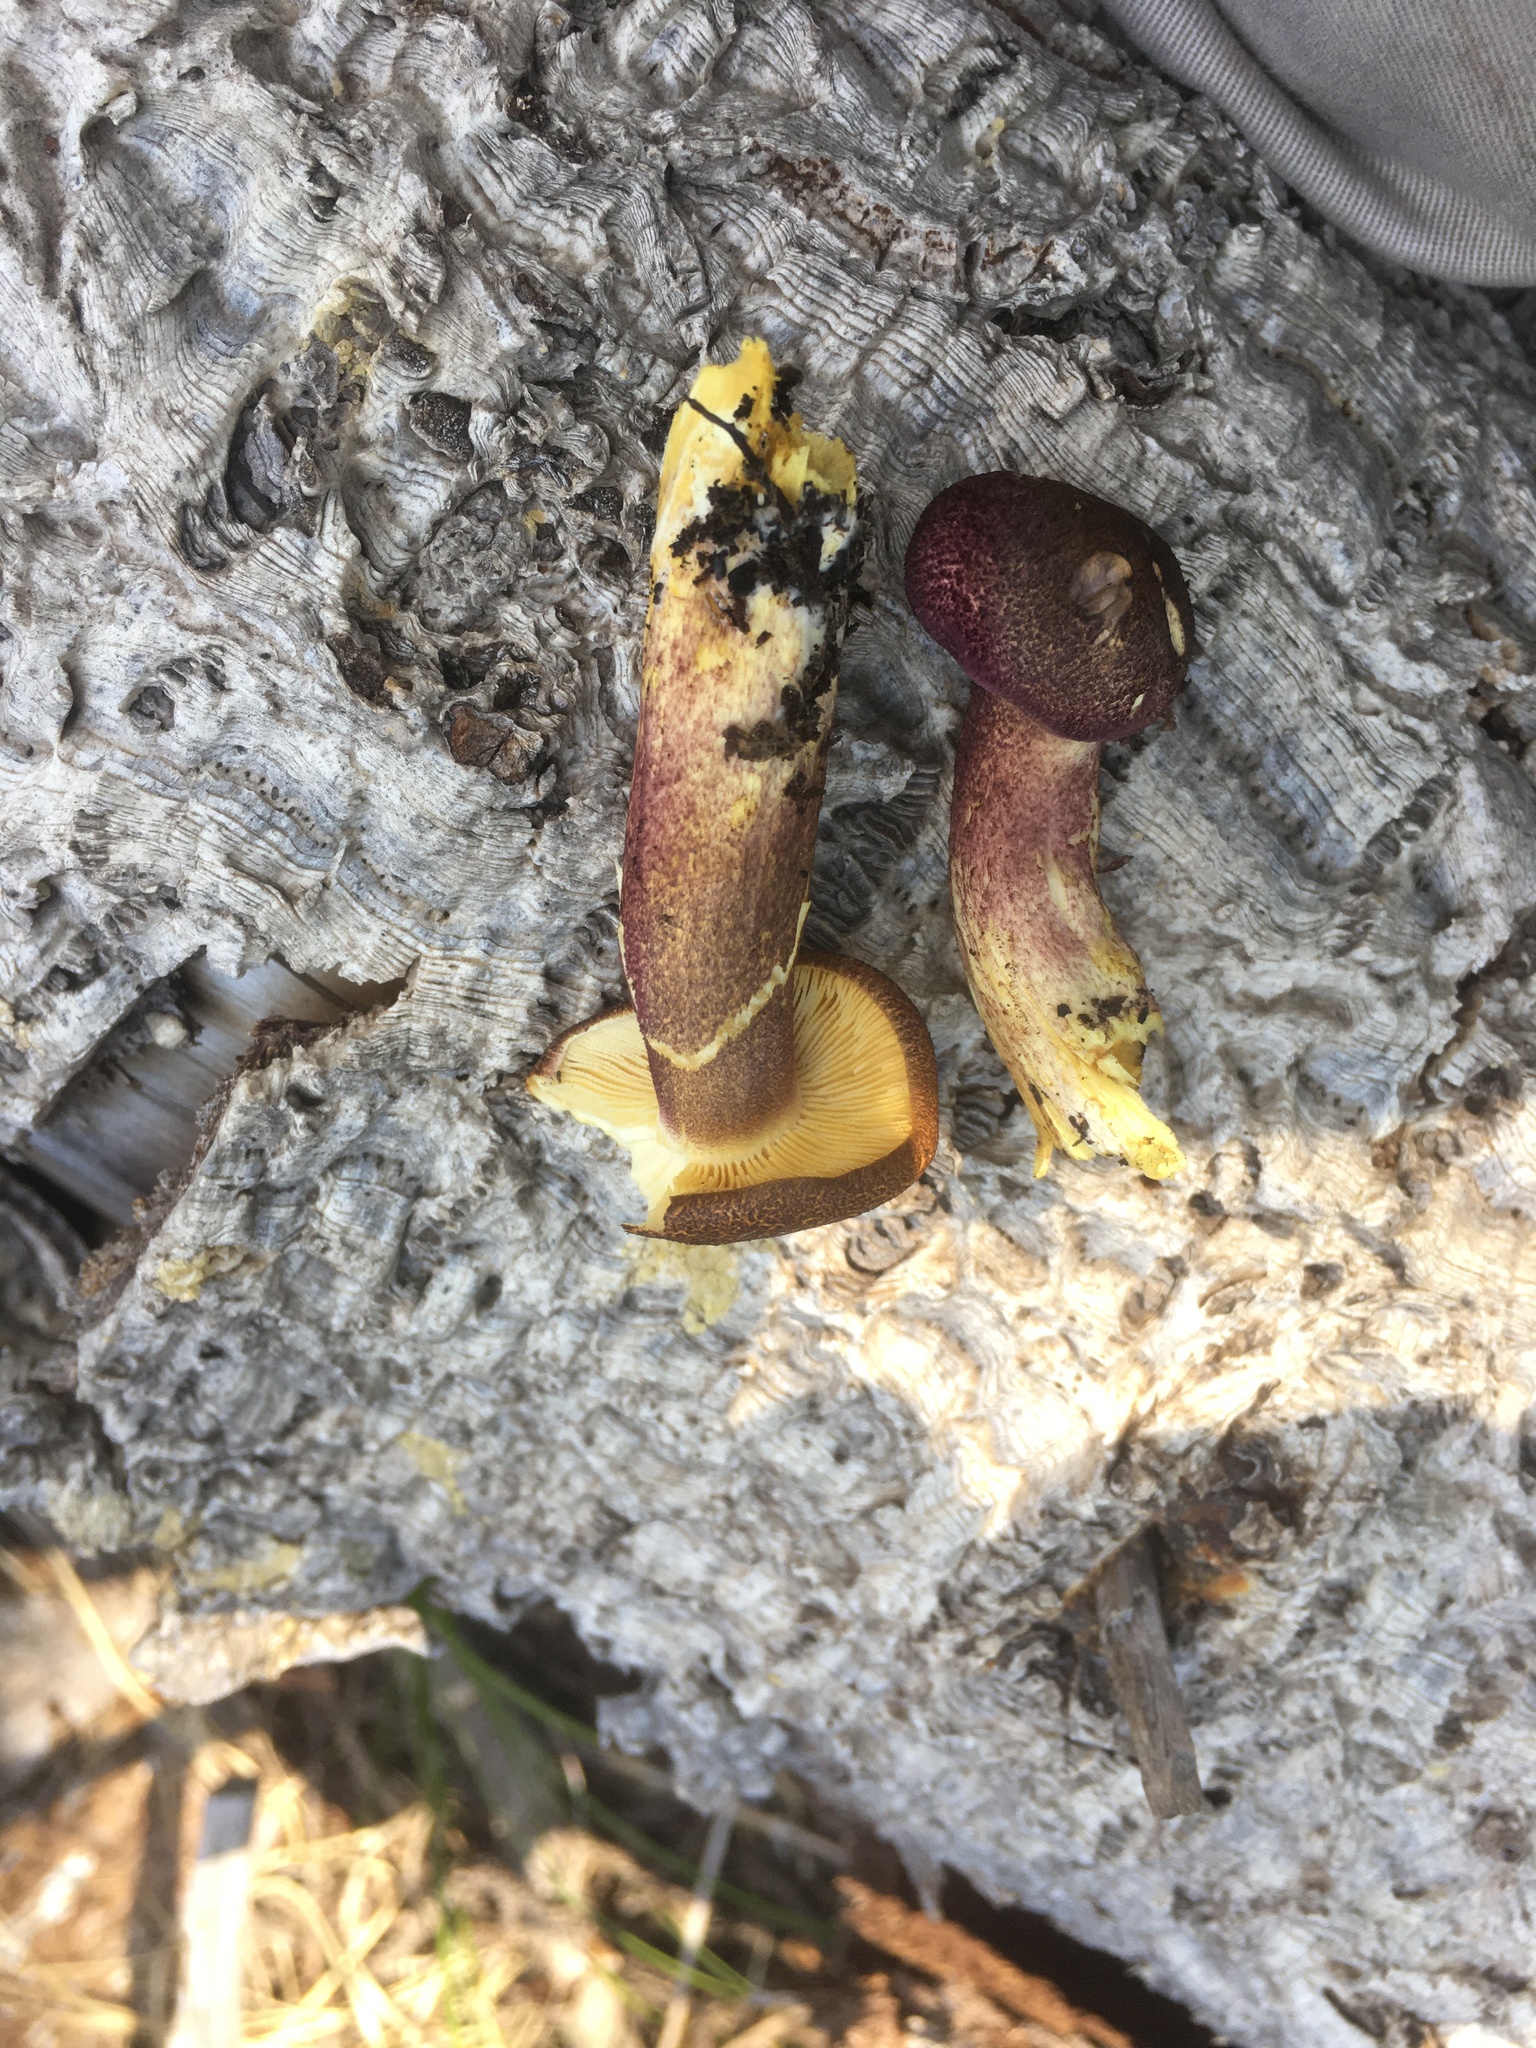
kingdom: Fungi
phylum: Basidiomycota
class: Agaricomycetes
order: Agaricales
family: Tricholomataceae
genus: Tricholomopsis
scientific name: Tricholomopsis rutilans
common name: Plums and custard
